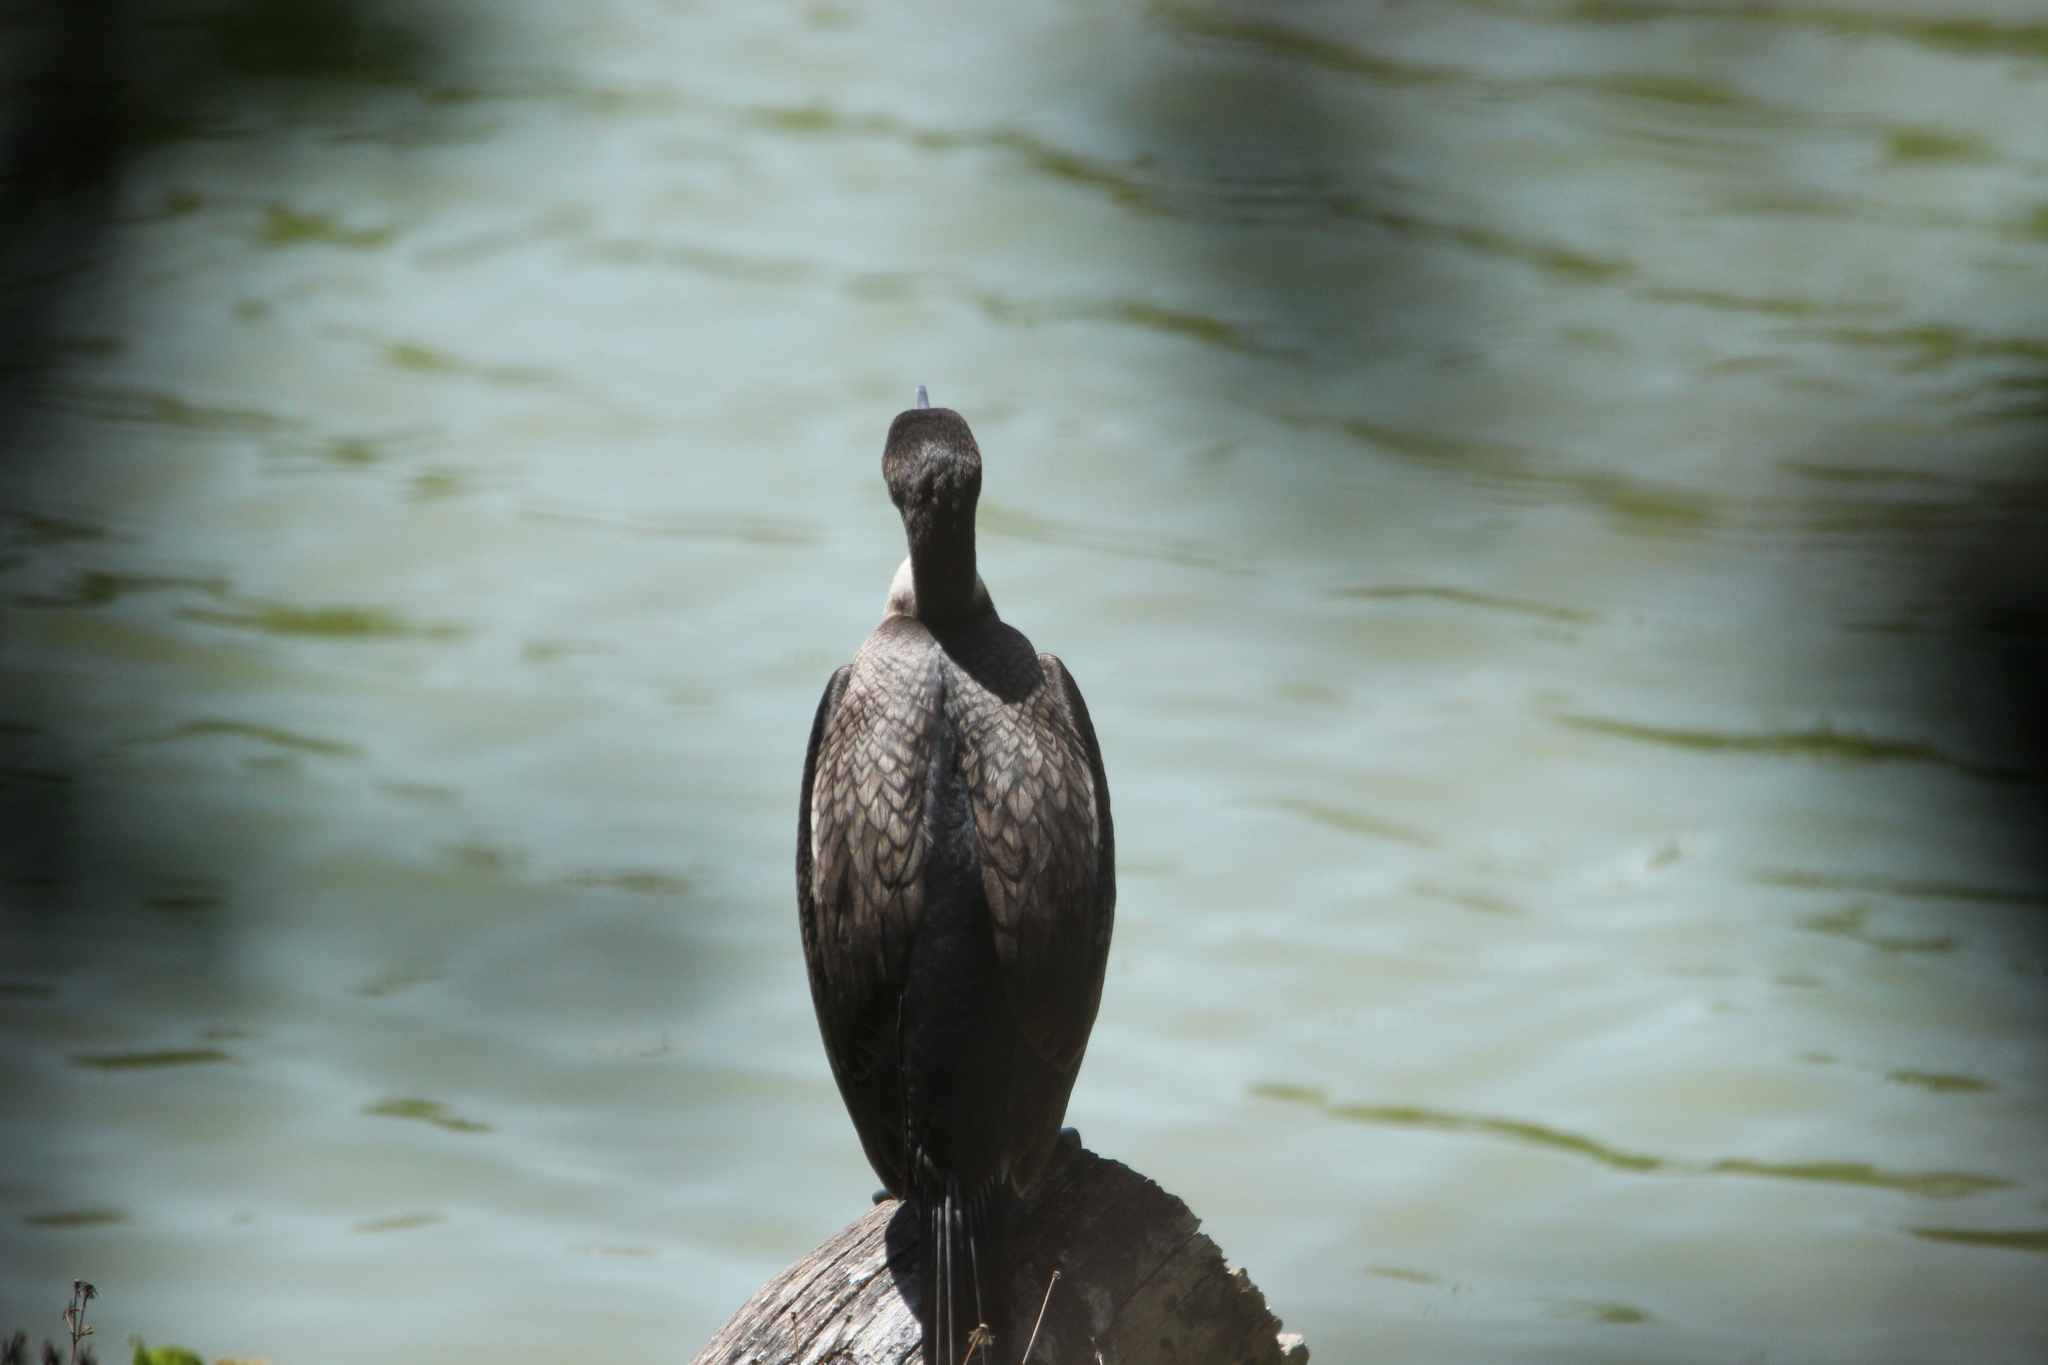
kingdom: Animalia
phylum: Chordata
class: Aves
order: Suliformes
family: Phalacrocoracidae
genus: Phalacrocorax
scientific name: Phalacrocorax carbo
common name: Great cormorant
